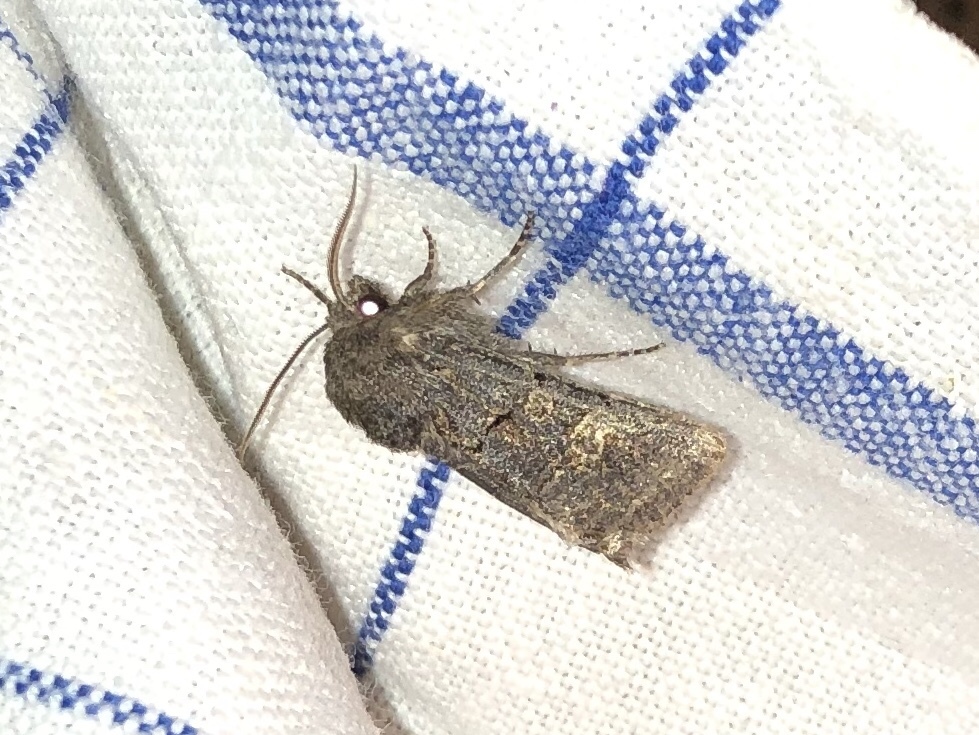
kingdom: Animalia
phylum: Arthropoda
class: Insecta
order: Lepidoptera
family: Noctuidae
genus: Tholera
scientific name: Tholera cespitis
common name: Hedge rustic
